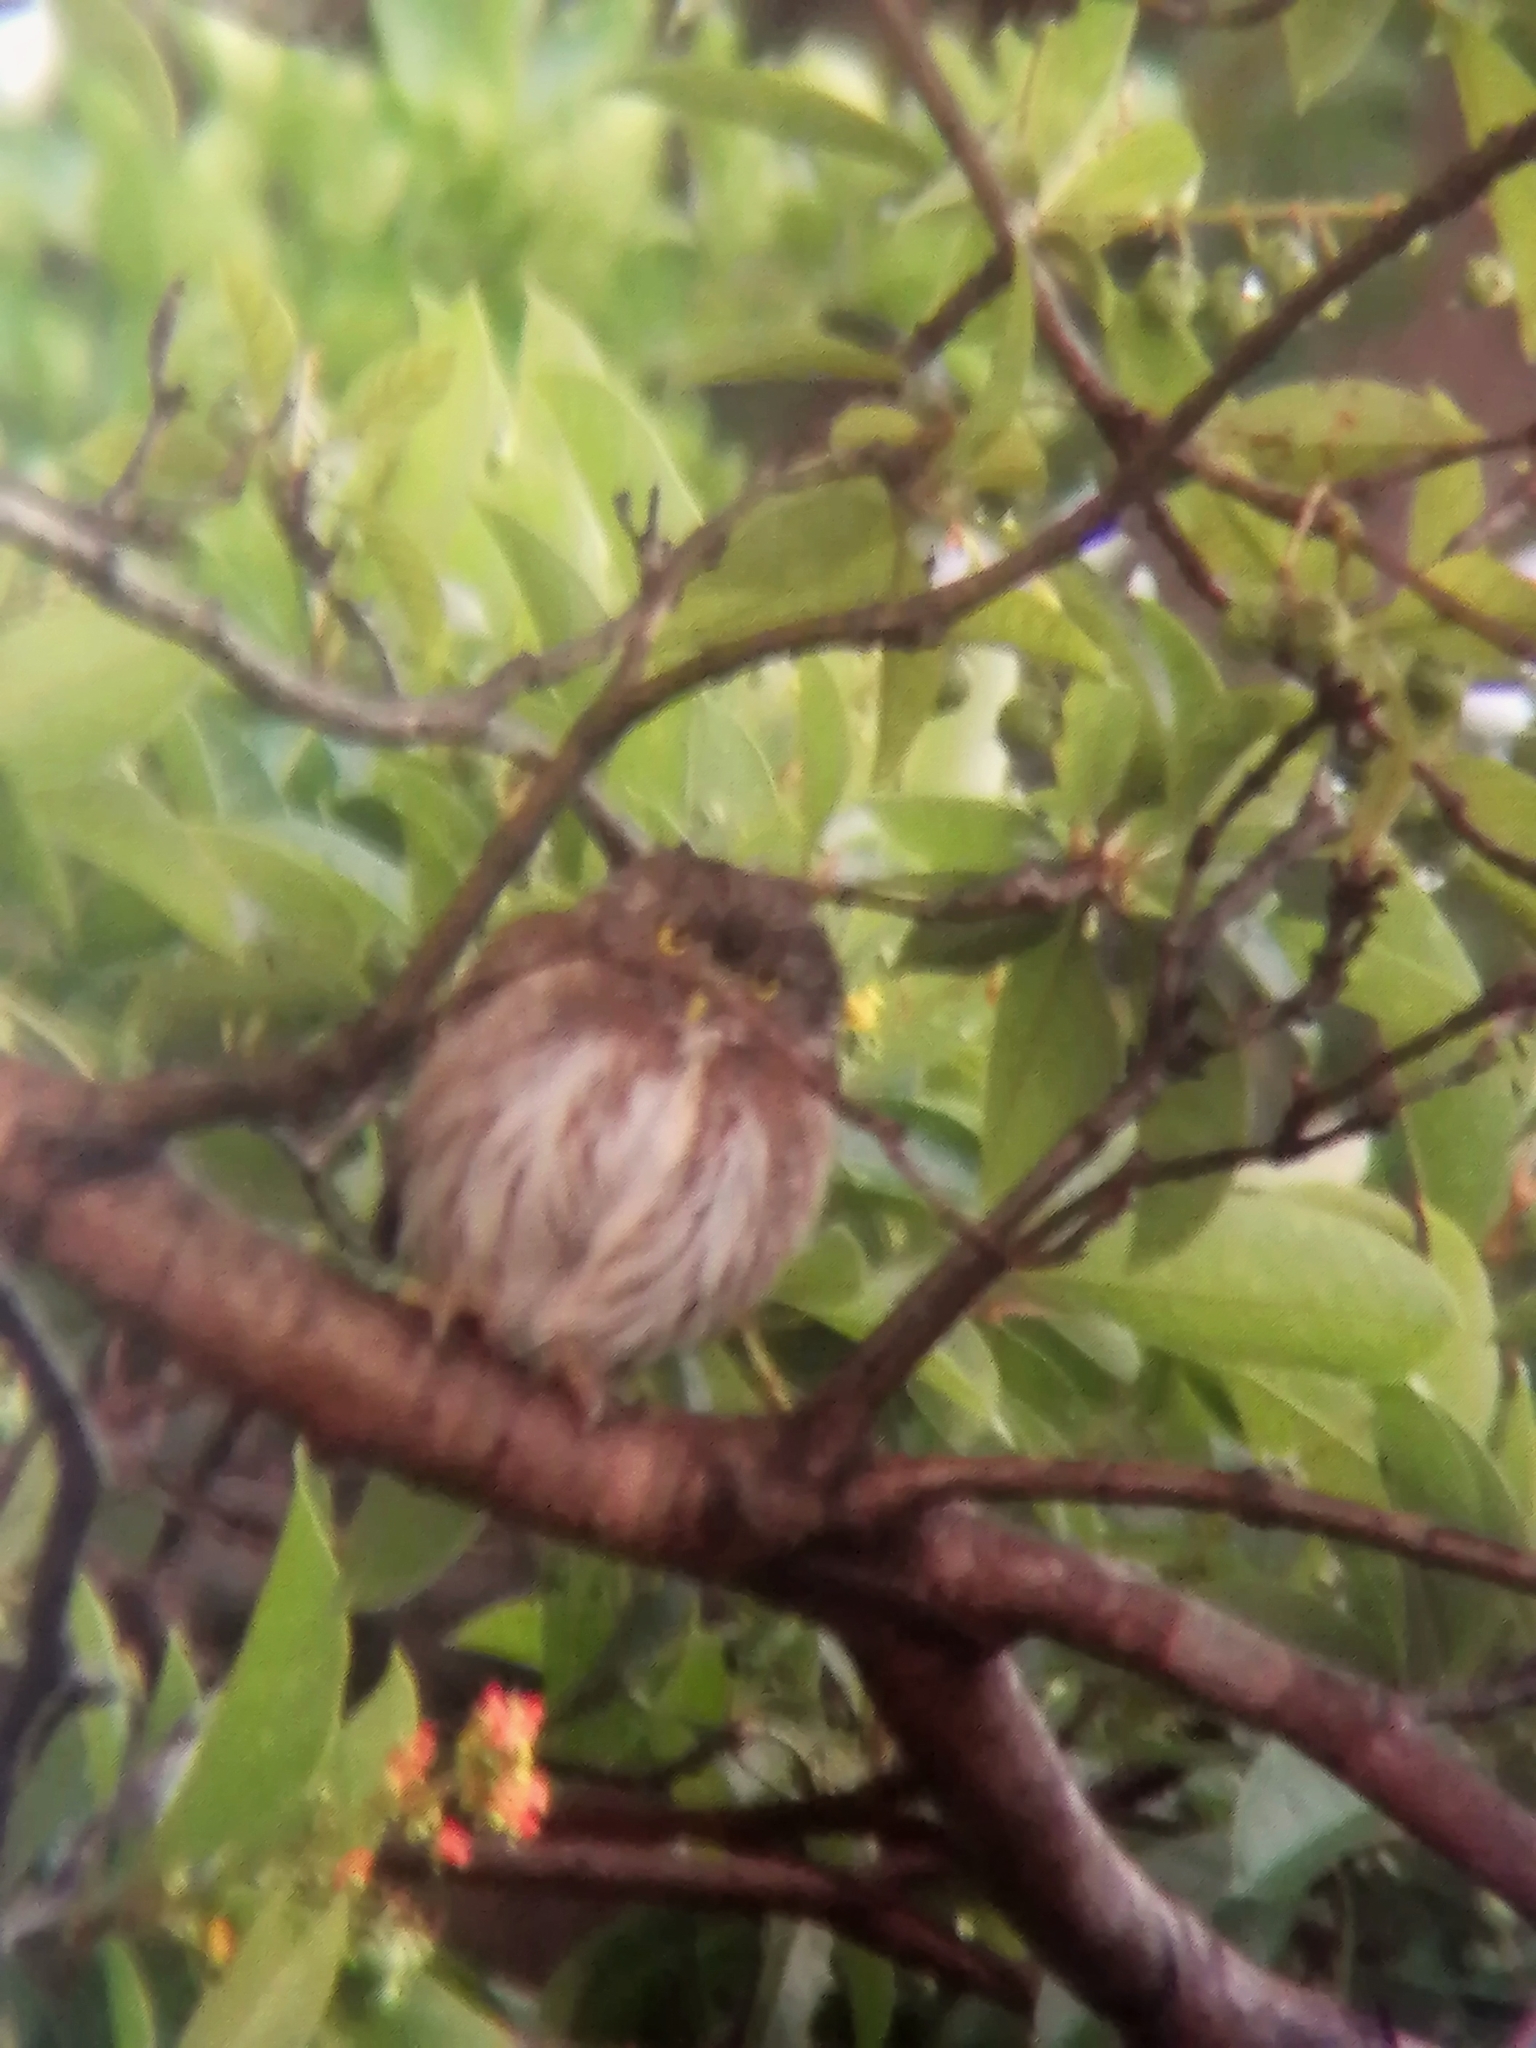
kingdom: Animalia
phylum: Chordata
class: Aves
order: Strigiformes
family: Strigidae
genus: Glaucidium
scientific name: Glaucidium brasilianum
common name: Ferruginous pygmy-owl
